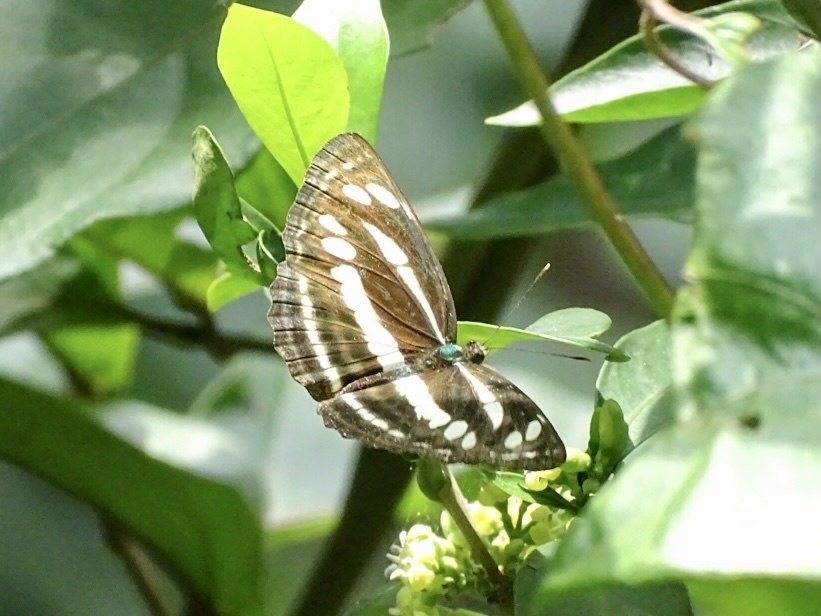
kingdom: Animalia
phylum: Arthropoda
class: Insecta
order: Lepidoptera
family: Nymphalidae
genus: Neptis
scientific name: Neptis clinia
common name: Southern sullied sailer
